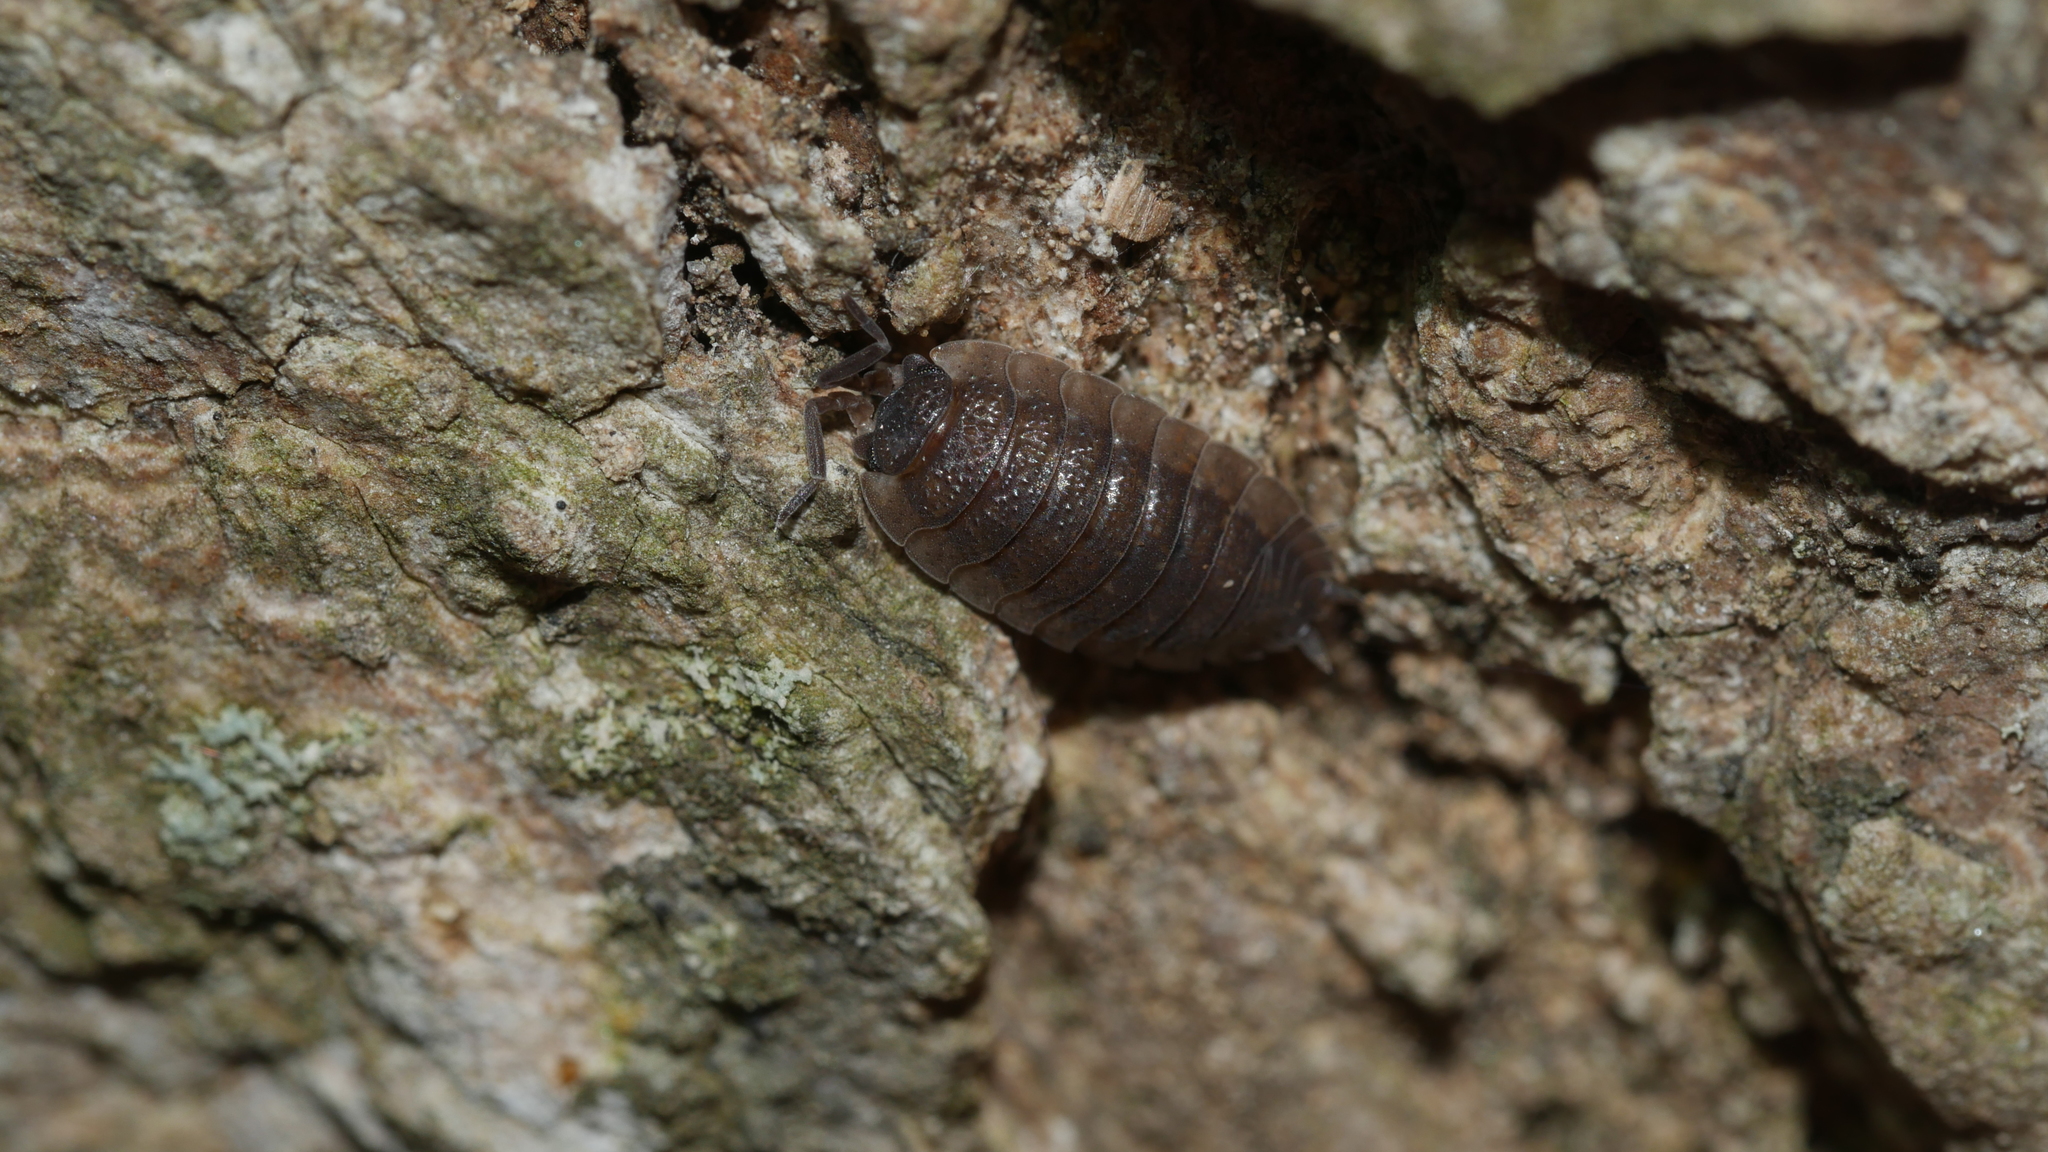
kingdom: Animalia
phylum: Arthropoda
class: Malacostraca
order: Isopoda
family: Porcellionidae
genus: Porcellio
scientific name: Porcellio scaber
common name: Common rough woodlouse
